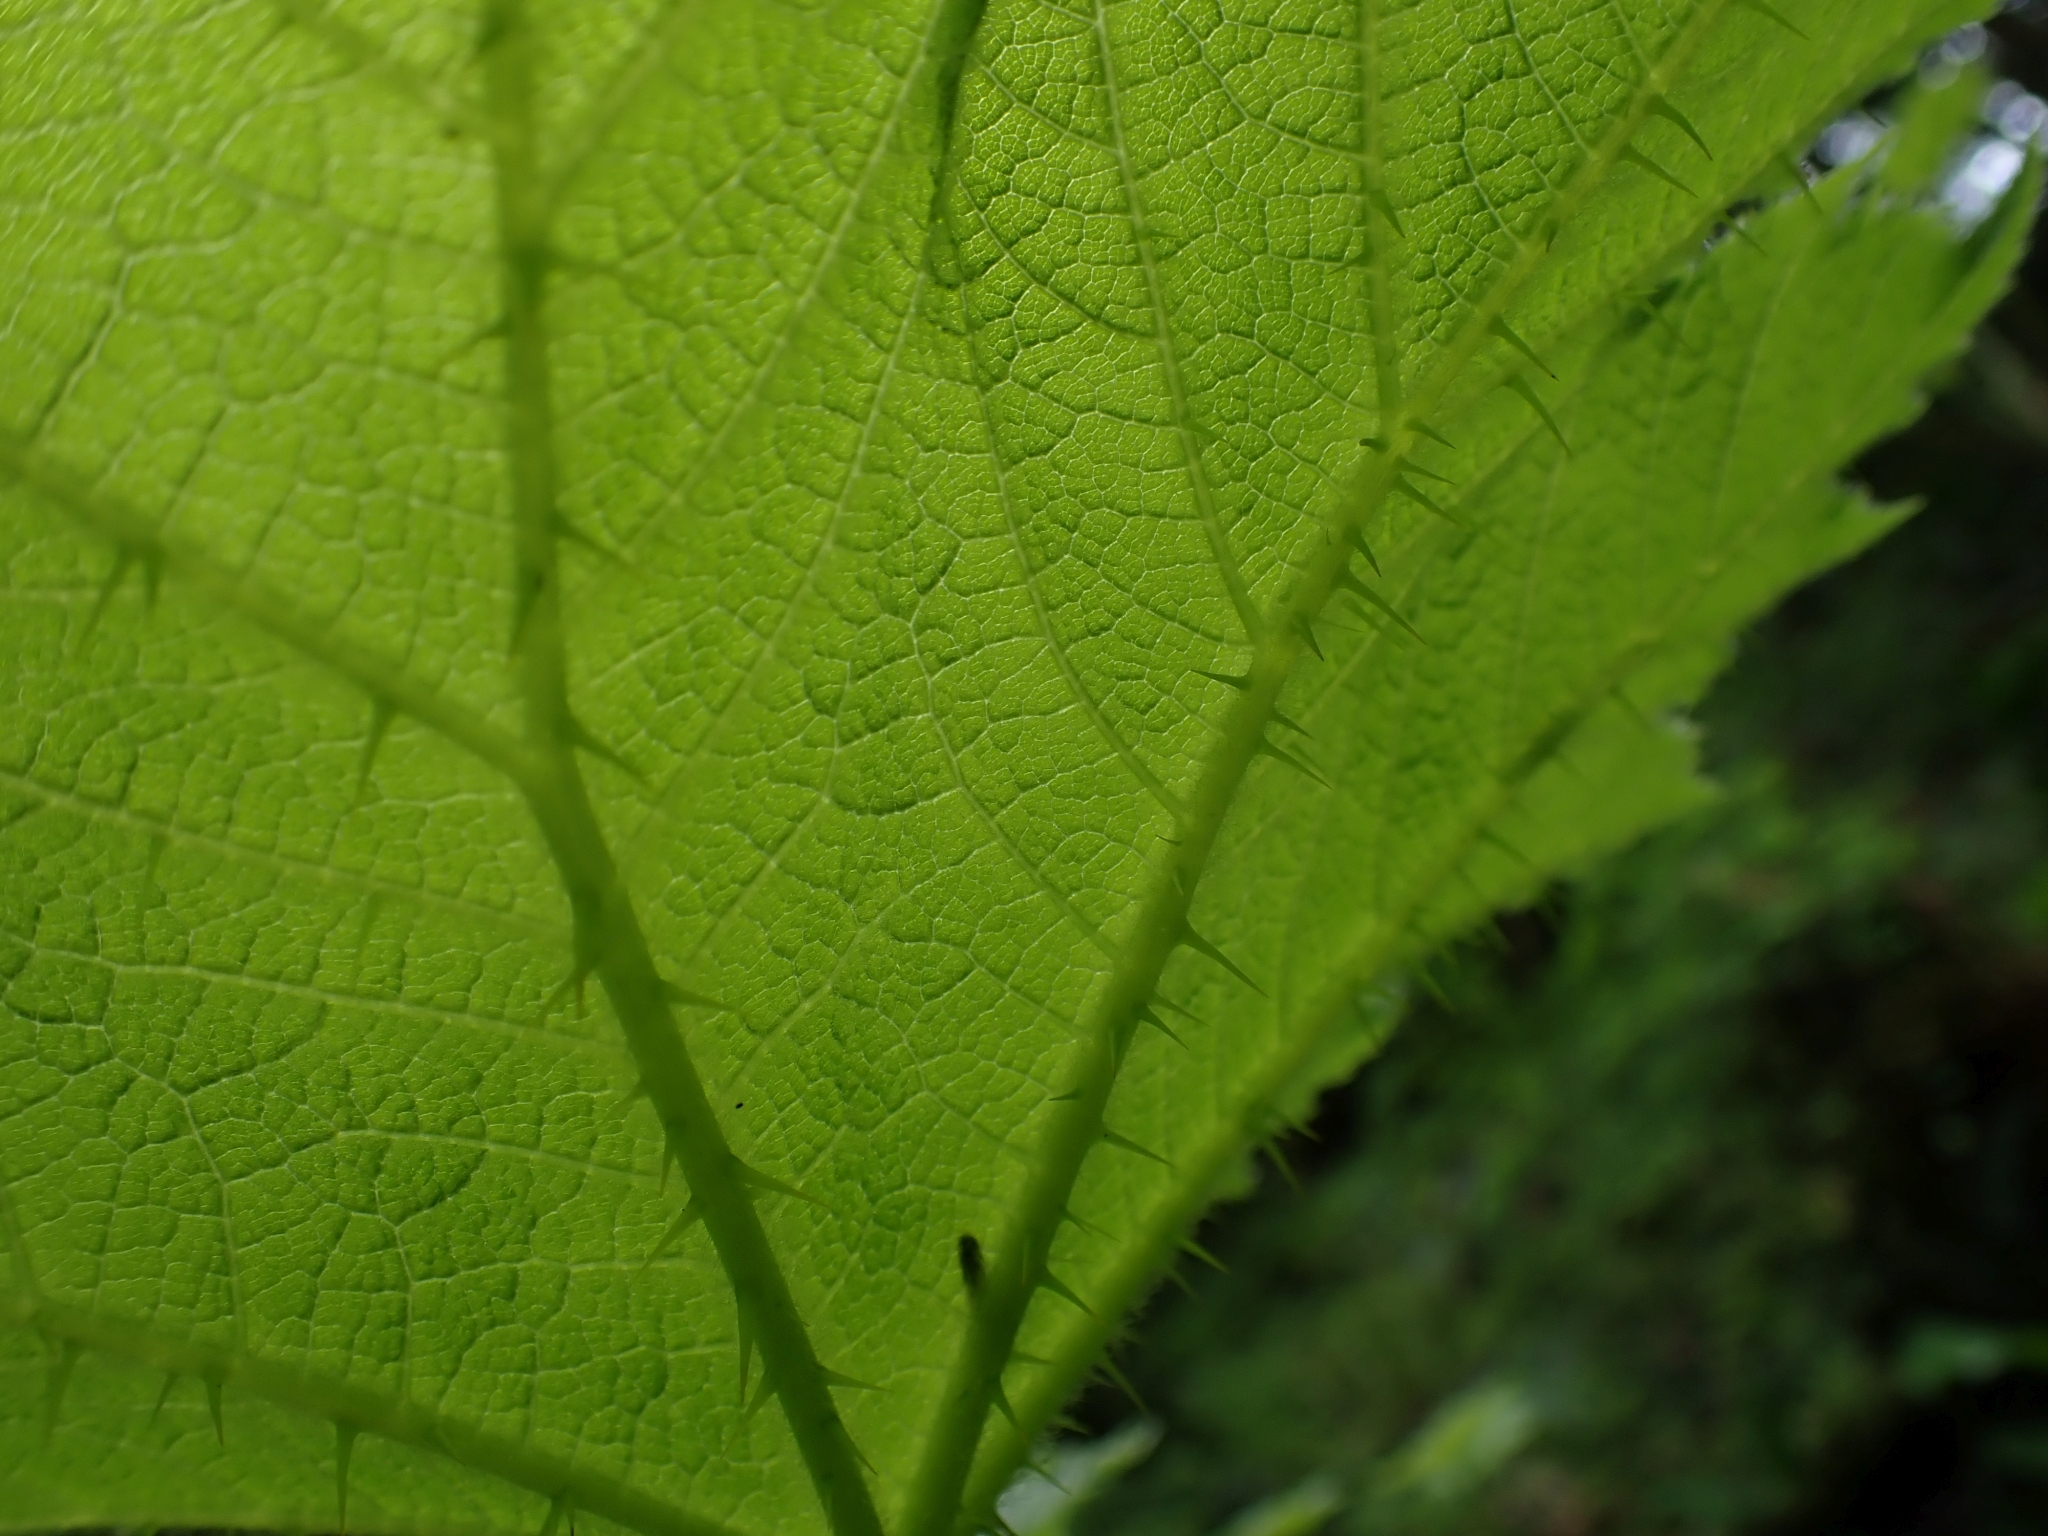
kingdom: Plantae
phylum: Tracheophyta
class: Magnoliopsida
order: Apiales
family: Araliaceae
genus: Oplopanax
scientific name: Oplopanax horridus
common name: Devil's walking-stick
